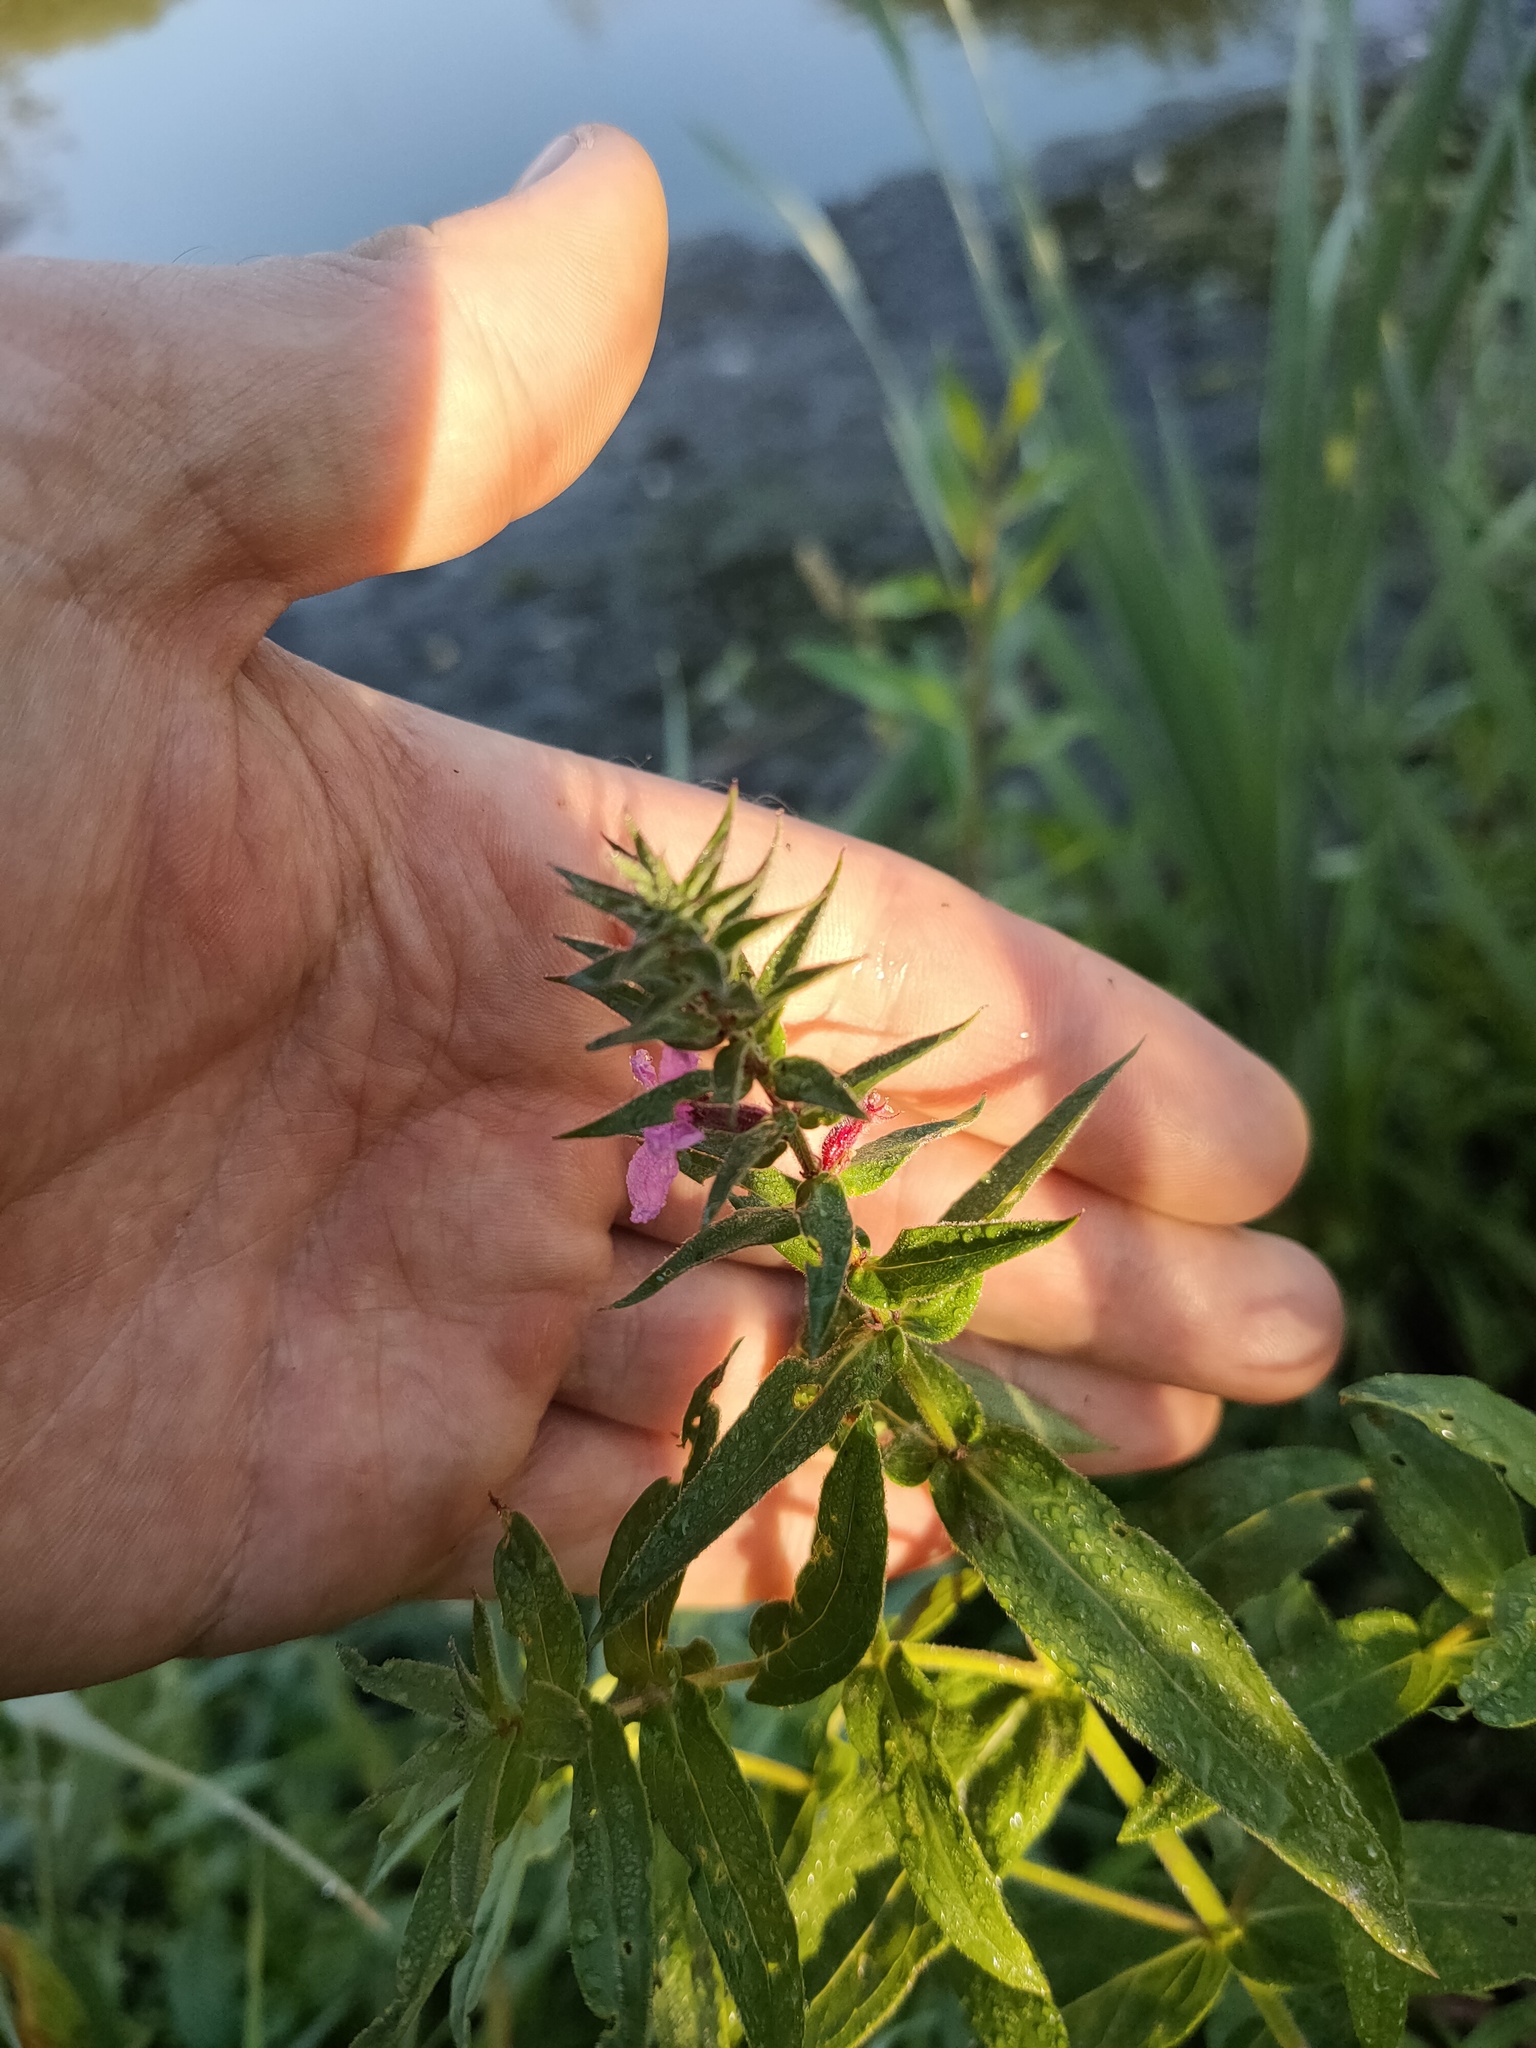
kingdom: Plantae
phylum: Tracheophyta
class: Magnoliopsida
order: Myrtales
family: Lythraceae
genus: Lythrum
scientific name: Lythrum salicaria
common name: Purple loosestrife
